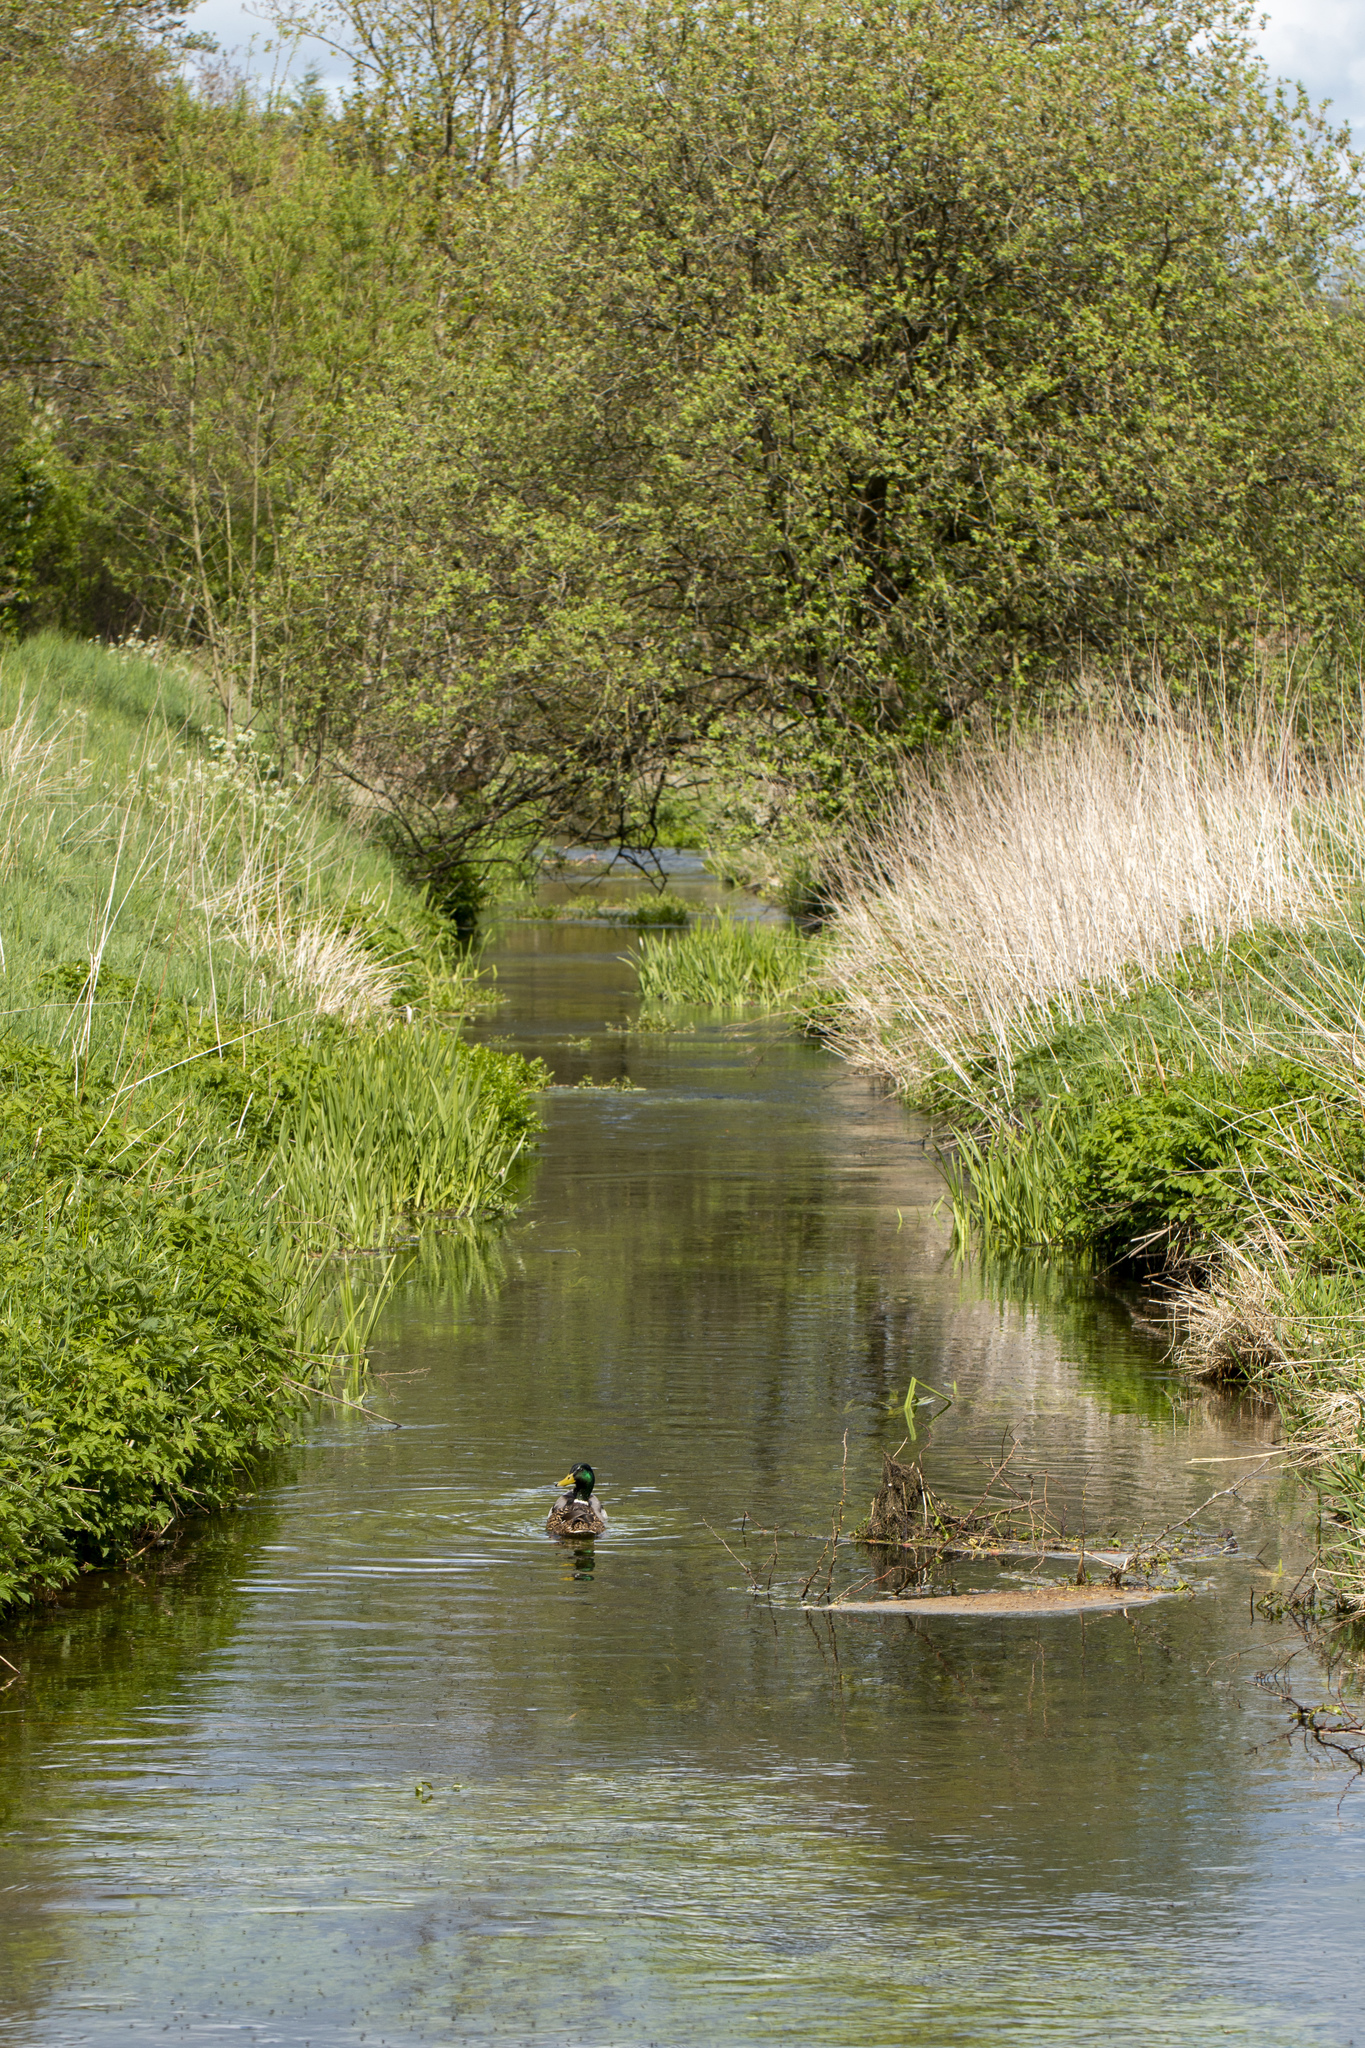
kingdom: Animalia
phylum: Chordata
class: Aves
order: Anseriformes
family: Anatidae
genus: Anas
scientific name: Anas platyrhynchos
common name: Mallard
